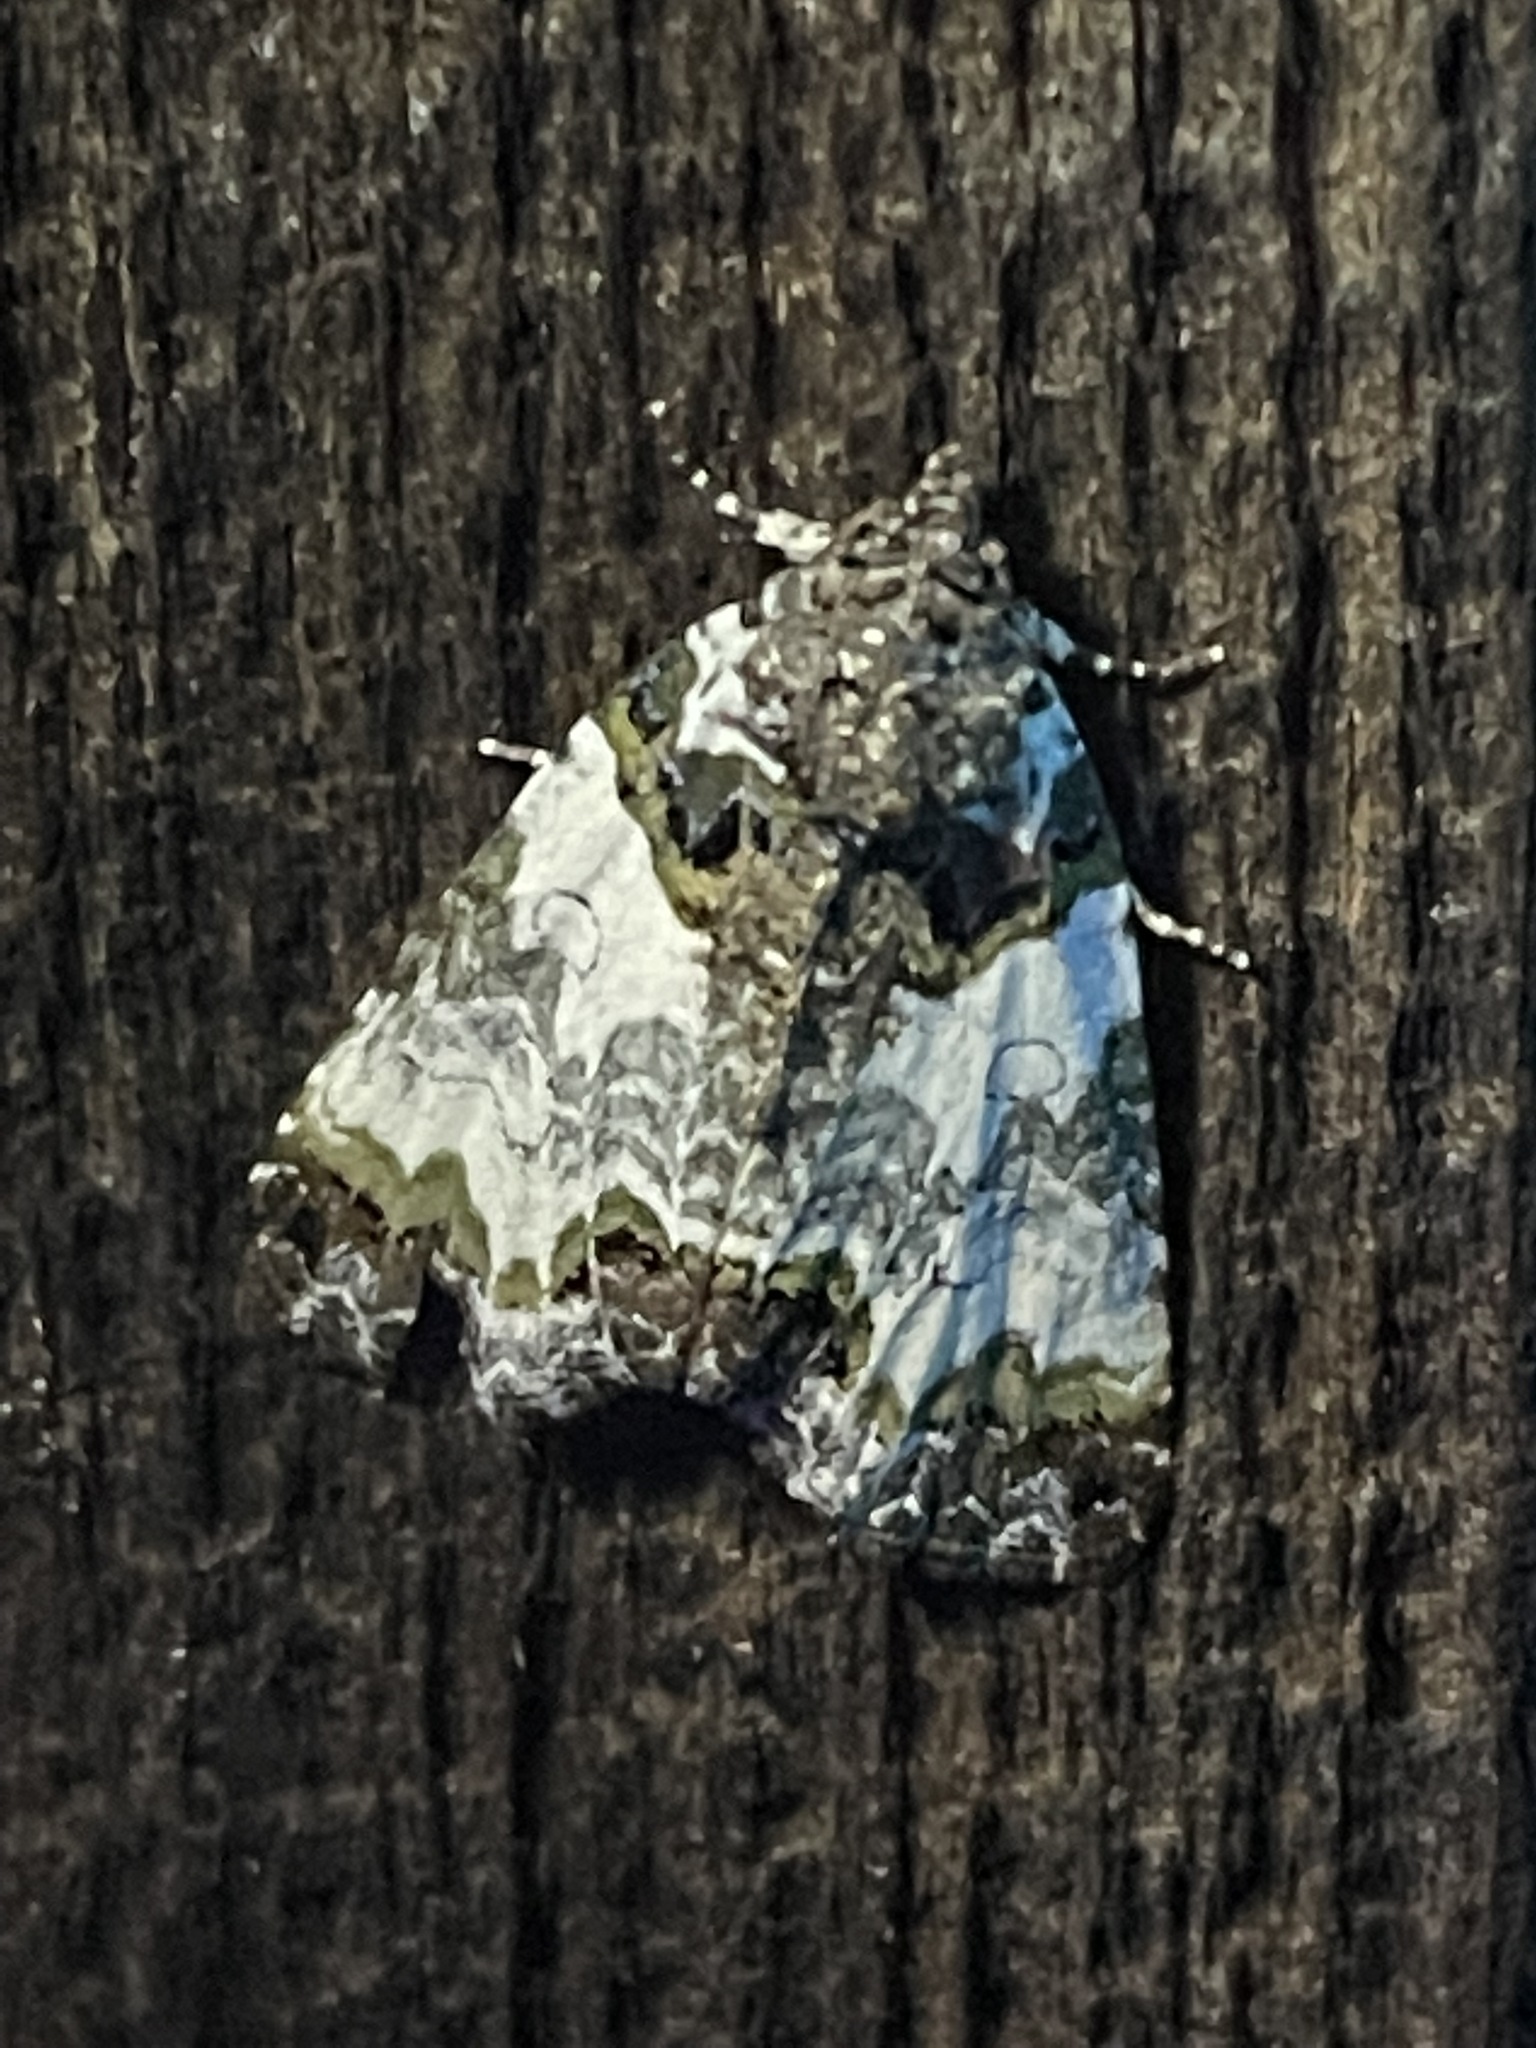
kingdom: Animalia
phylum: Arthropoda
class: Insecta
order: Lepidoptera
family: Noctuidae
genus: Cerma
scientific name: Cerma cerintha
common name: Tufted bird-dropping moth
